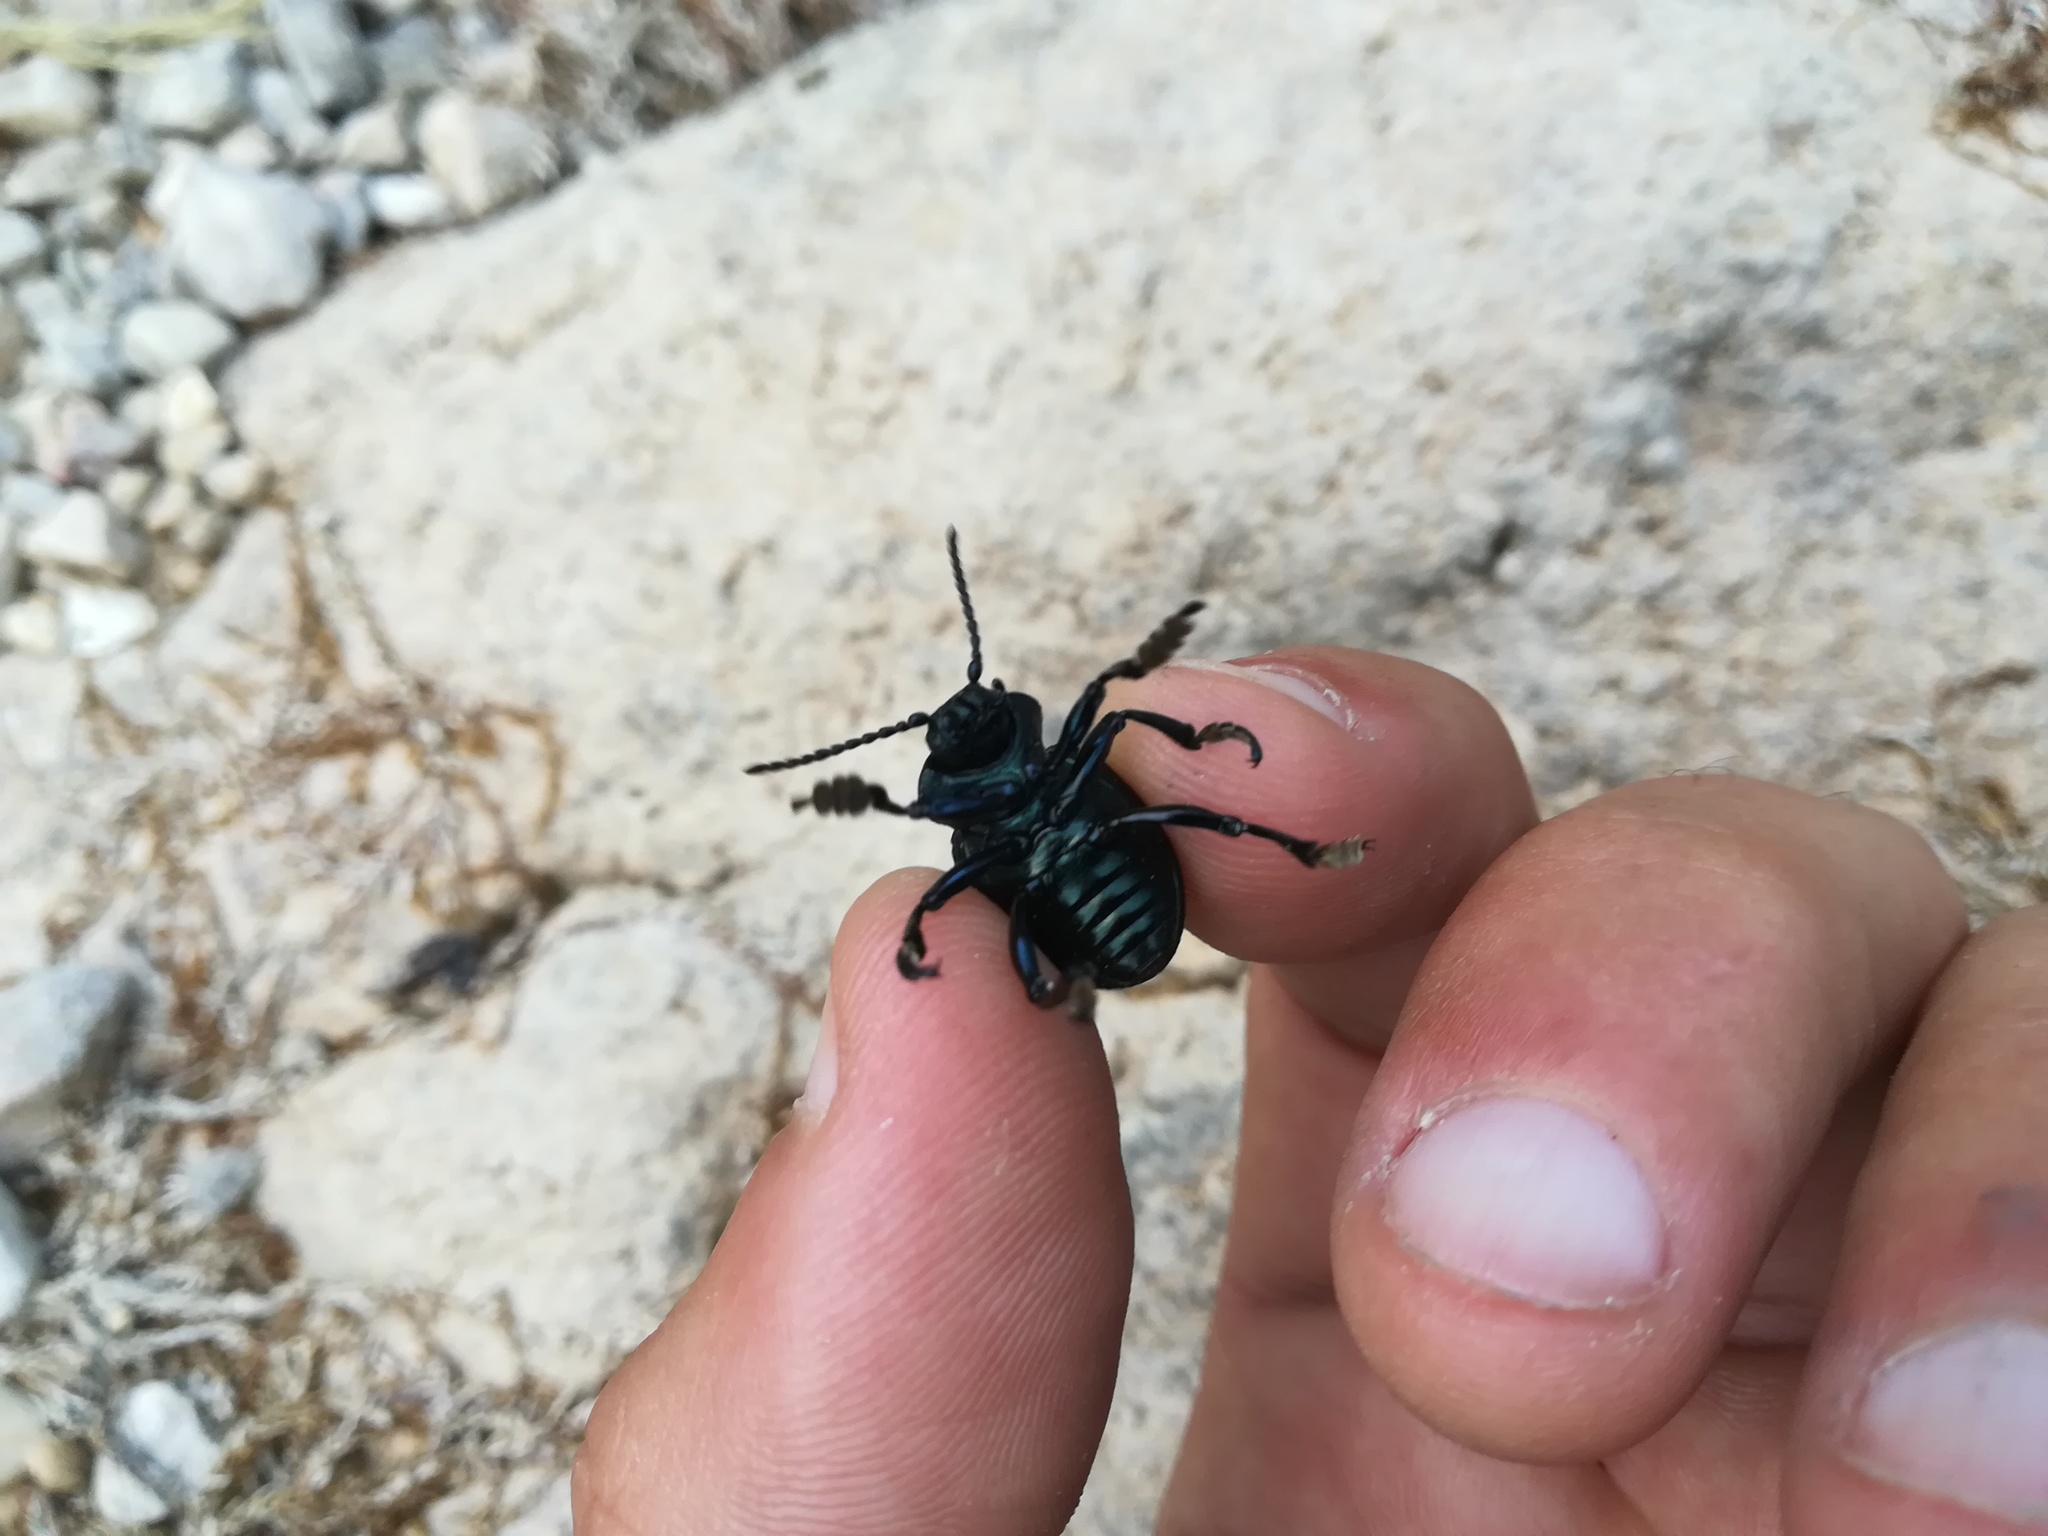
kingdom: Animalia
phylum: Arthropoda
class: Insecta
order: Coleoptera
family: Chrysomelidae
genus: Timarcha
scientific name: Timarcha tenebricosa
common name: Bloody-nosed beetle
